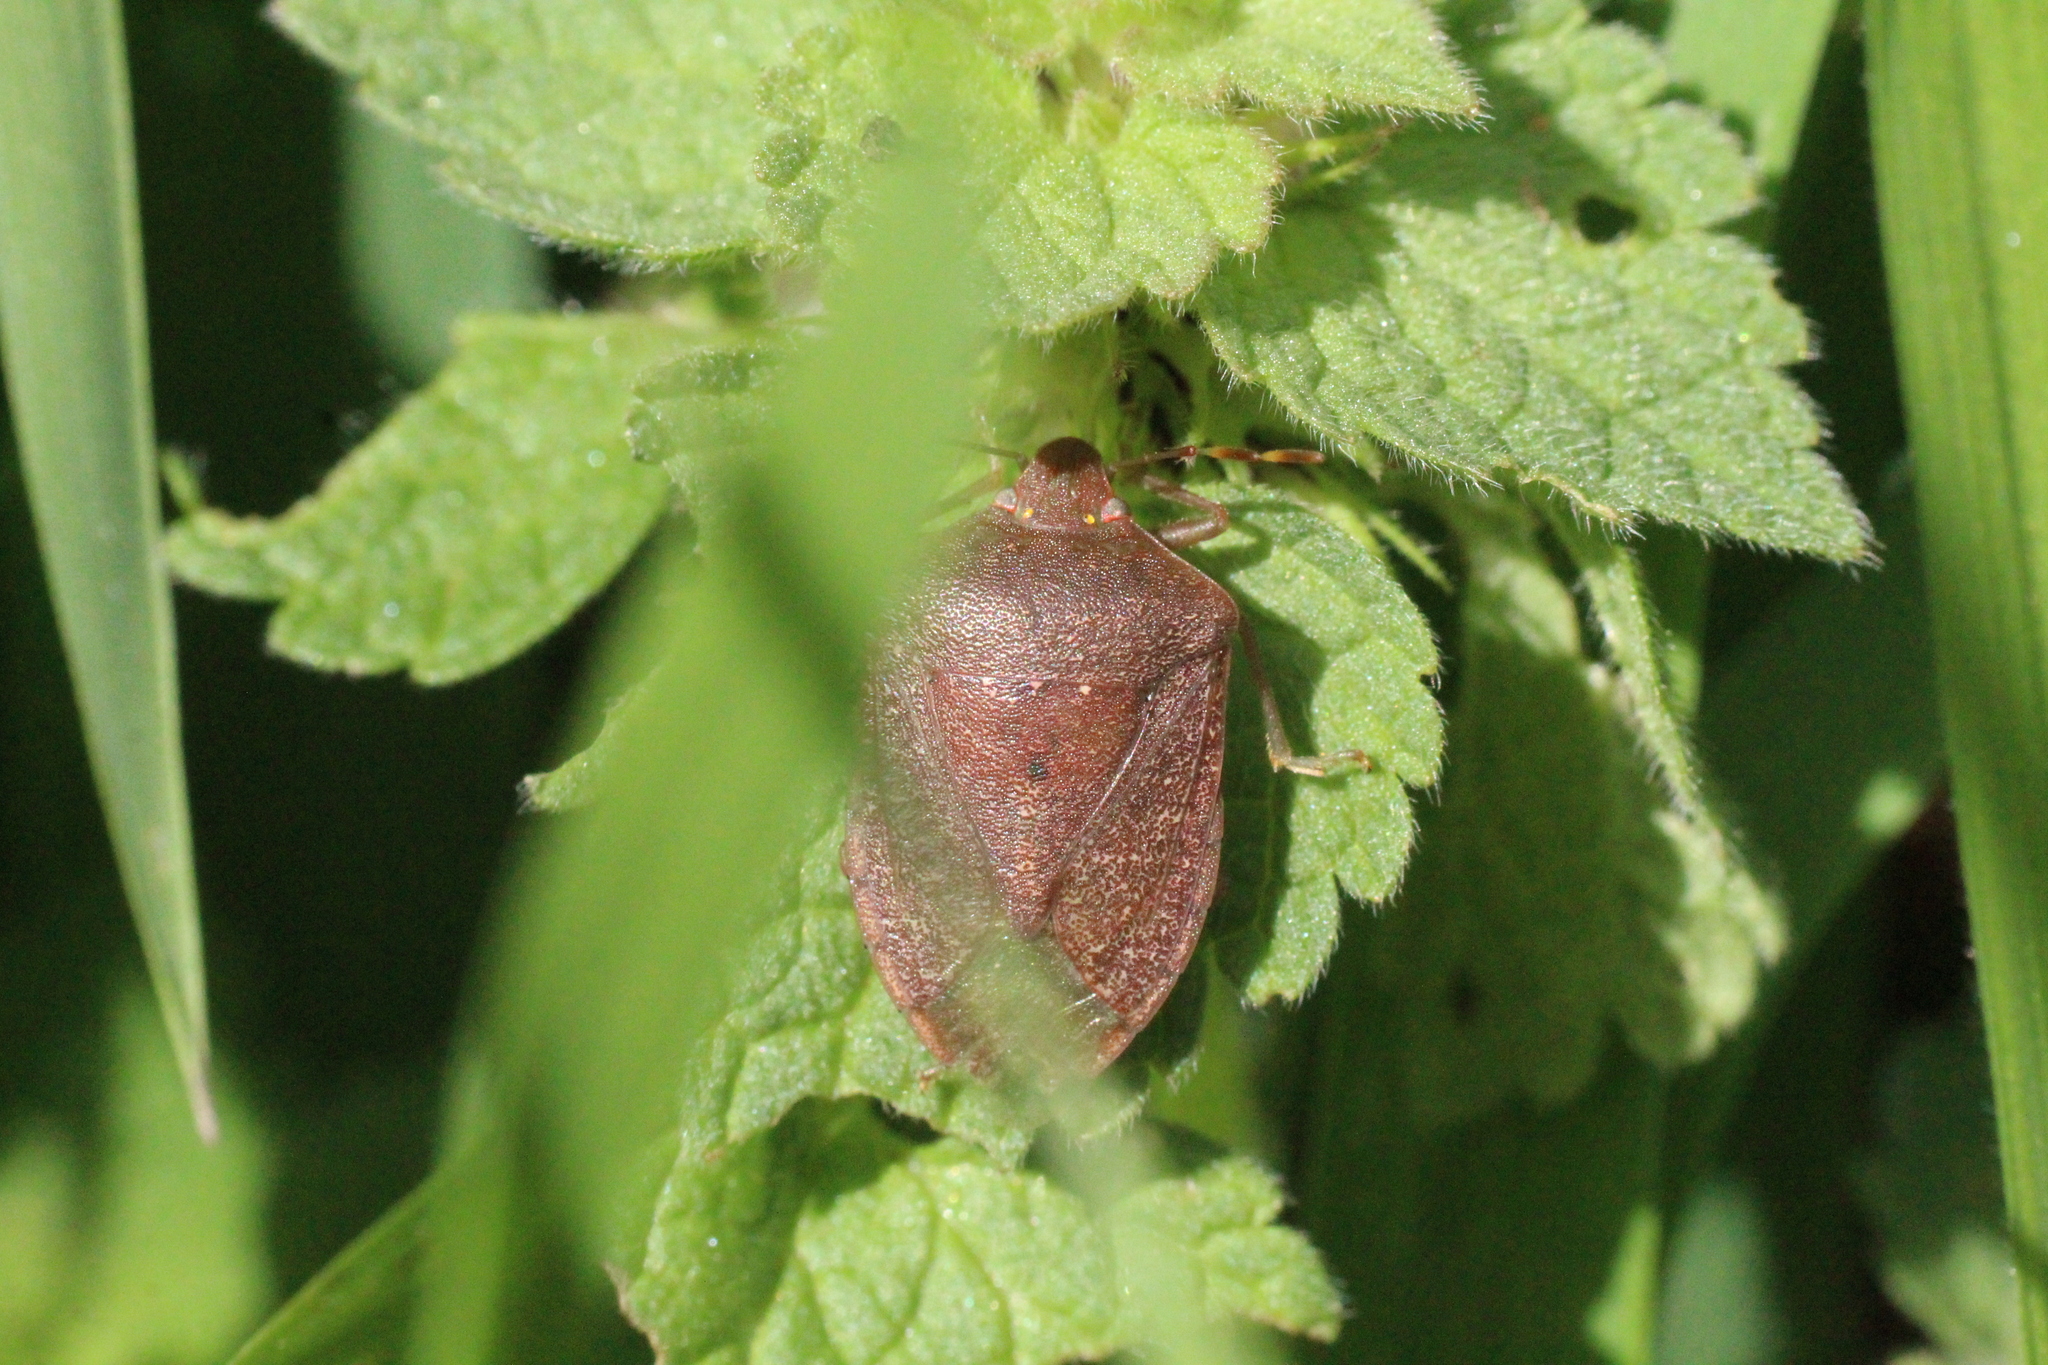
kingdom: Animalia
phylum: Arthropoda
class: Insecta
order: Hemiptera
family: Pentatomidae
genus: Nezara
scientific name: Nezara viridula
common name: Southern green stink bug
